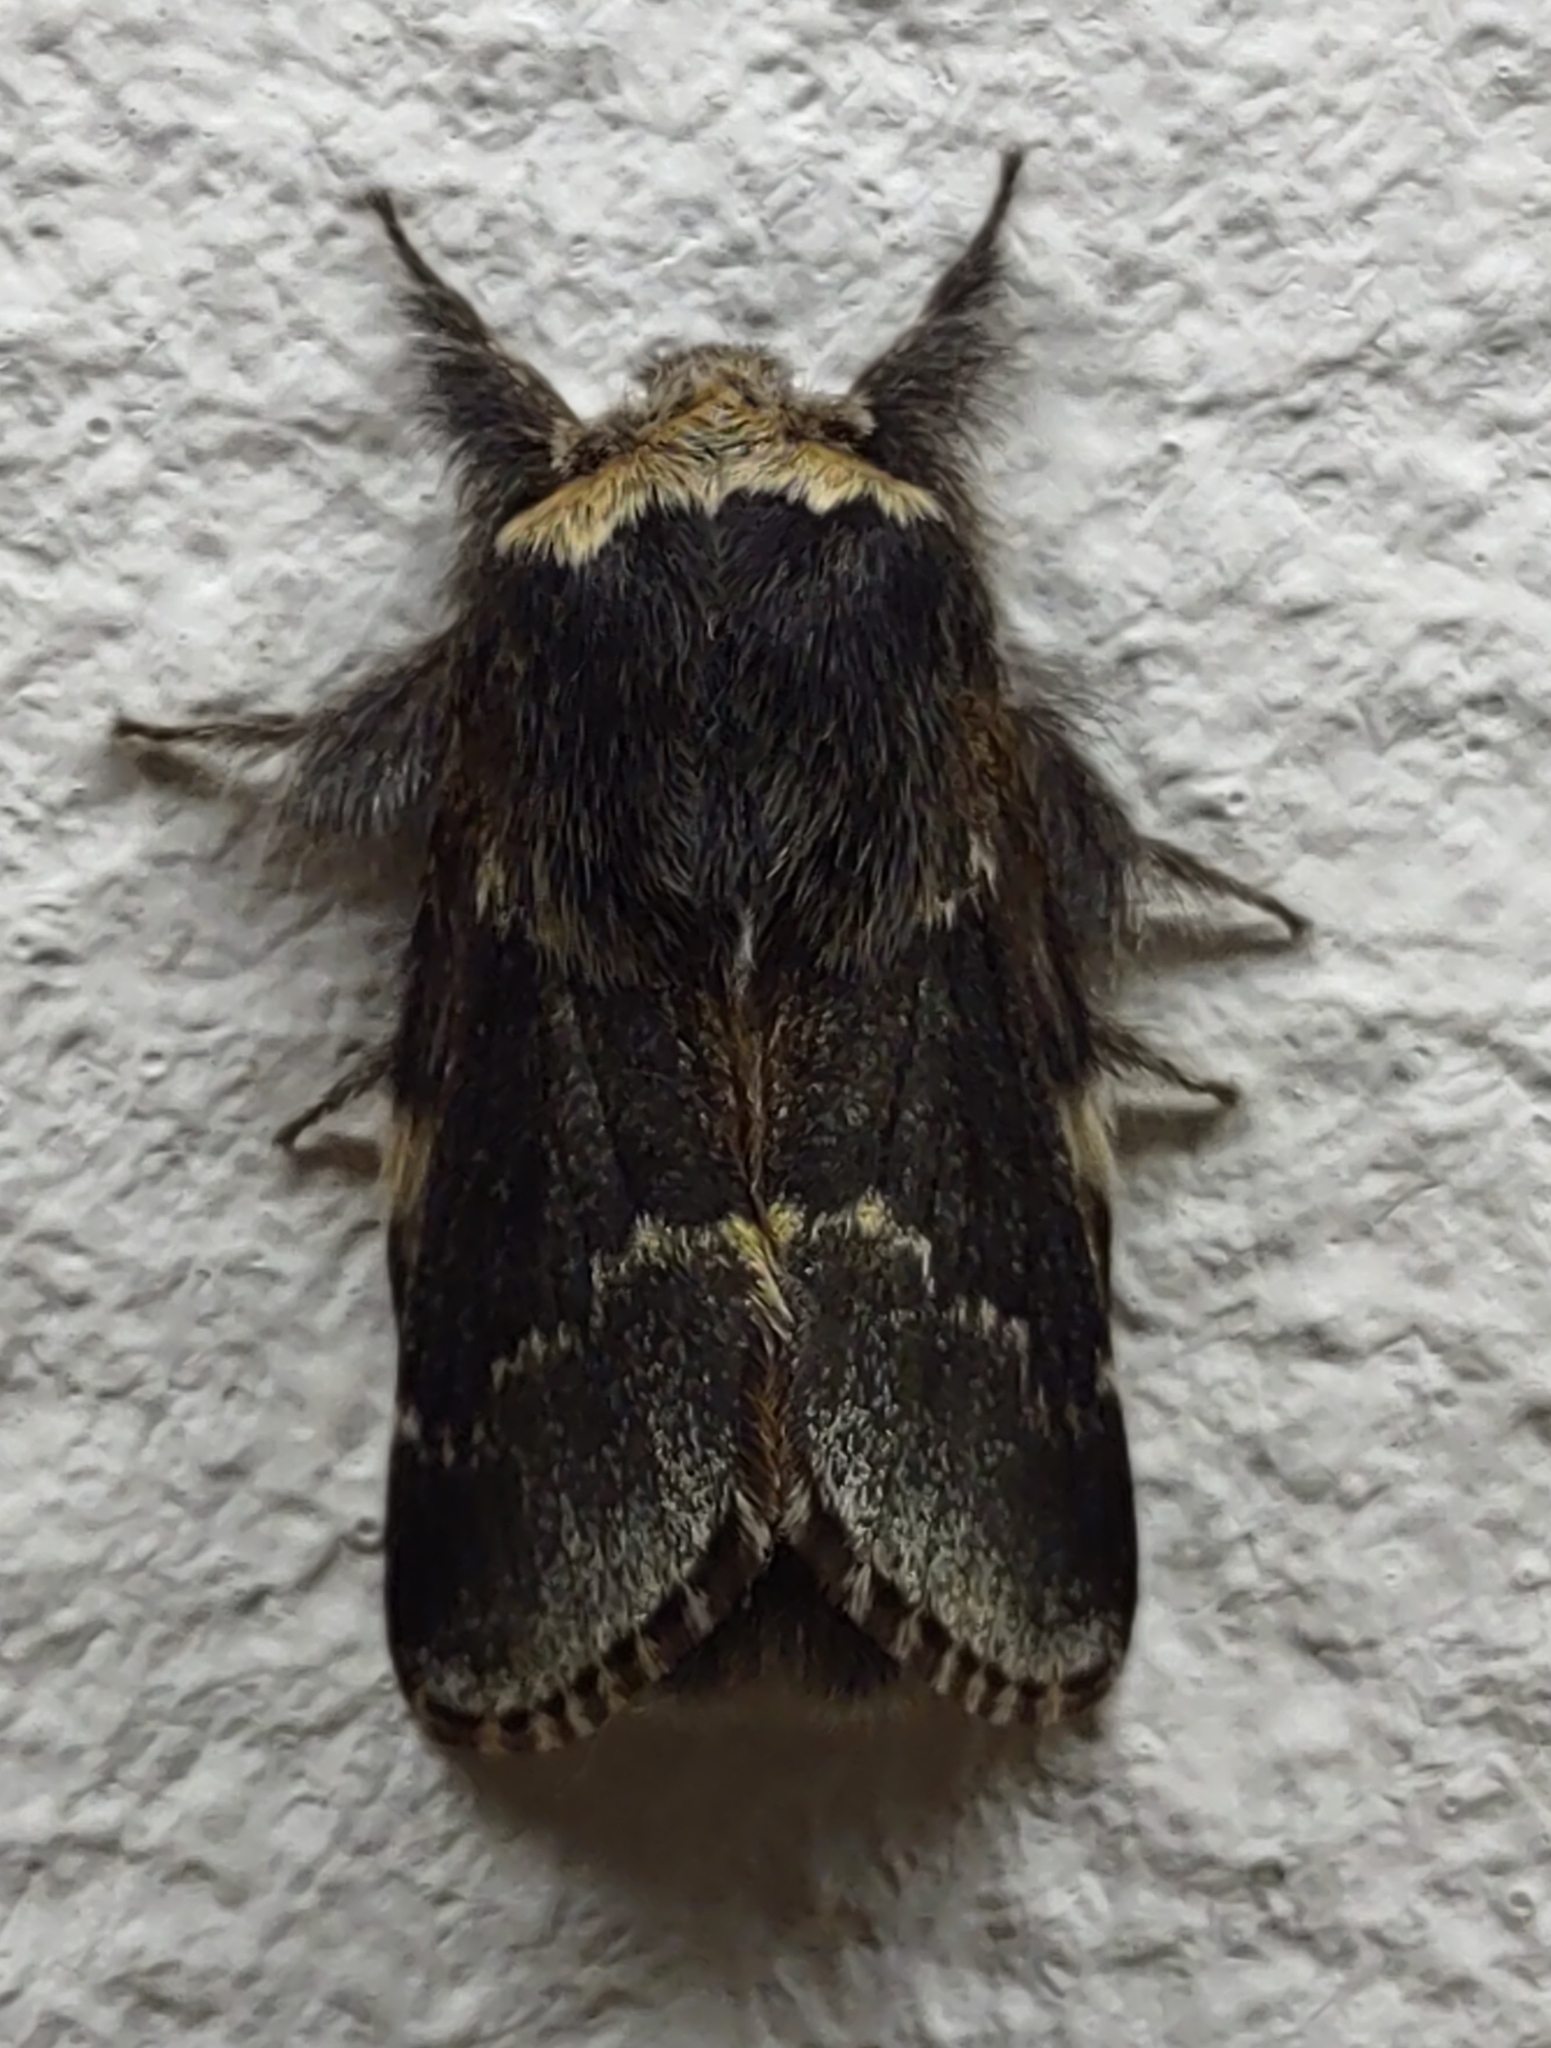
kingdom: Animalia
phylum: Arthropoda
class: Insecta
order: Lepidoptera
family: Lasiocampidae
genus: Poecilocampa
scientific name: Poecilocampa populi
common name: December moth
